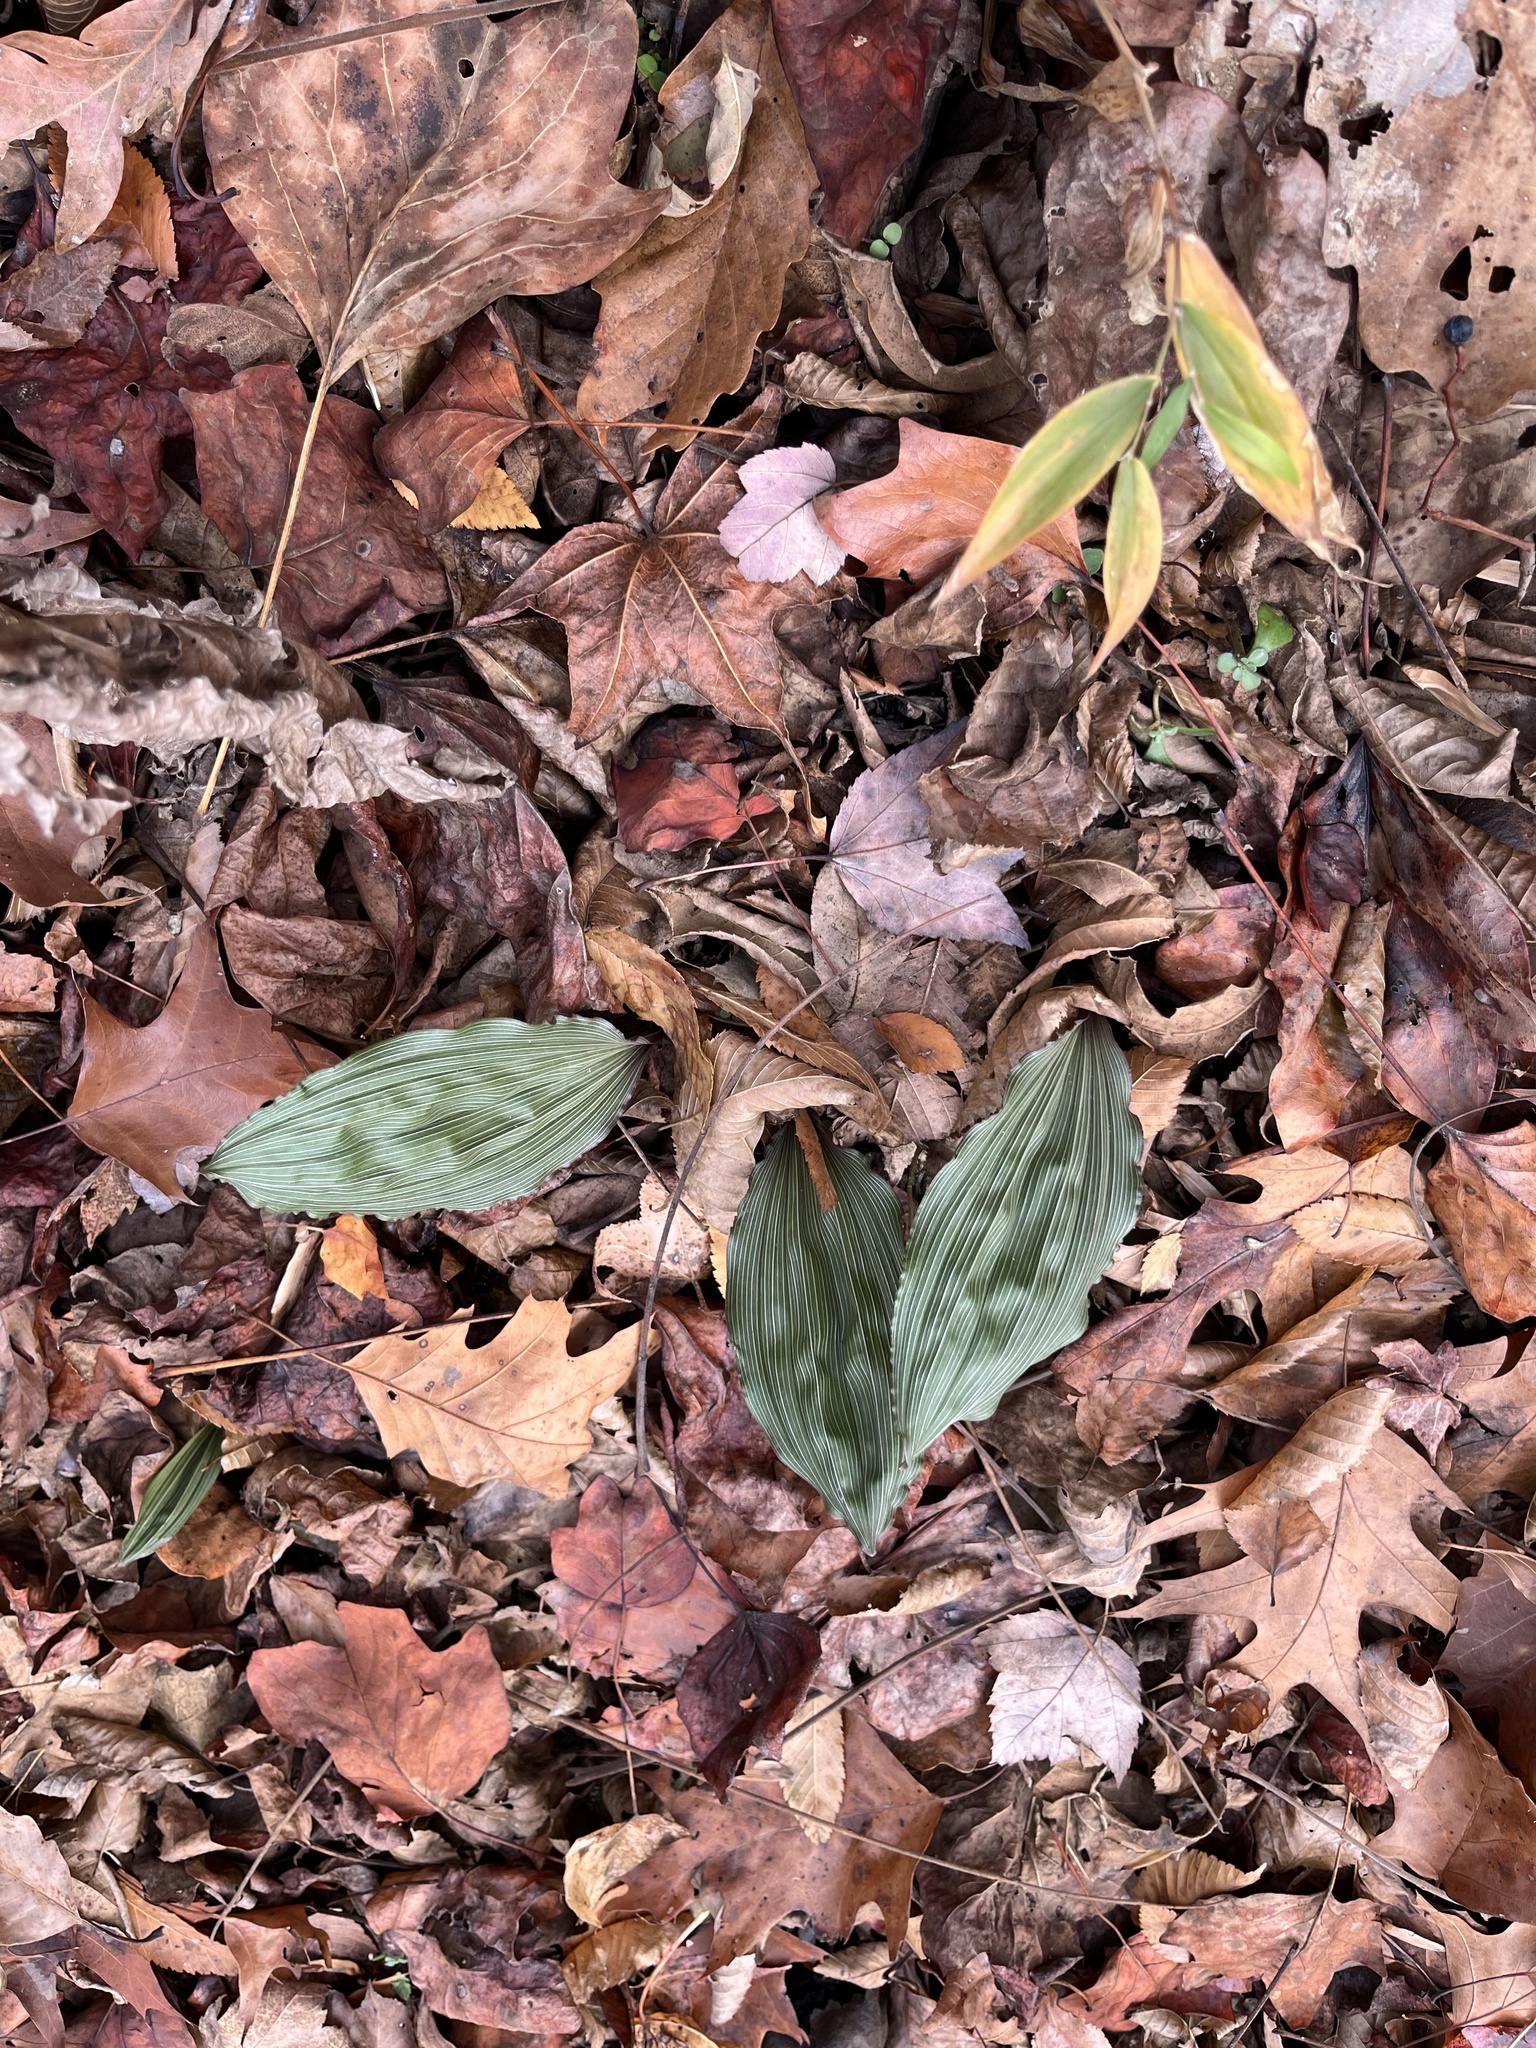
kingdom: Plantae
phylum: Tracheophyta
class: Liliopsida
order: Asparagales
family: Orchidaceae
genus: Aplectrum
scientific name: Aplectrum hyemale
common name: Adam-and-eve
